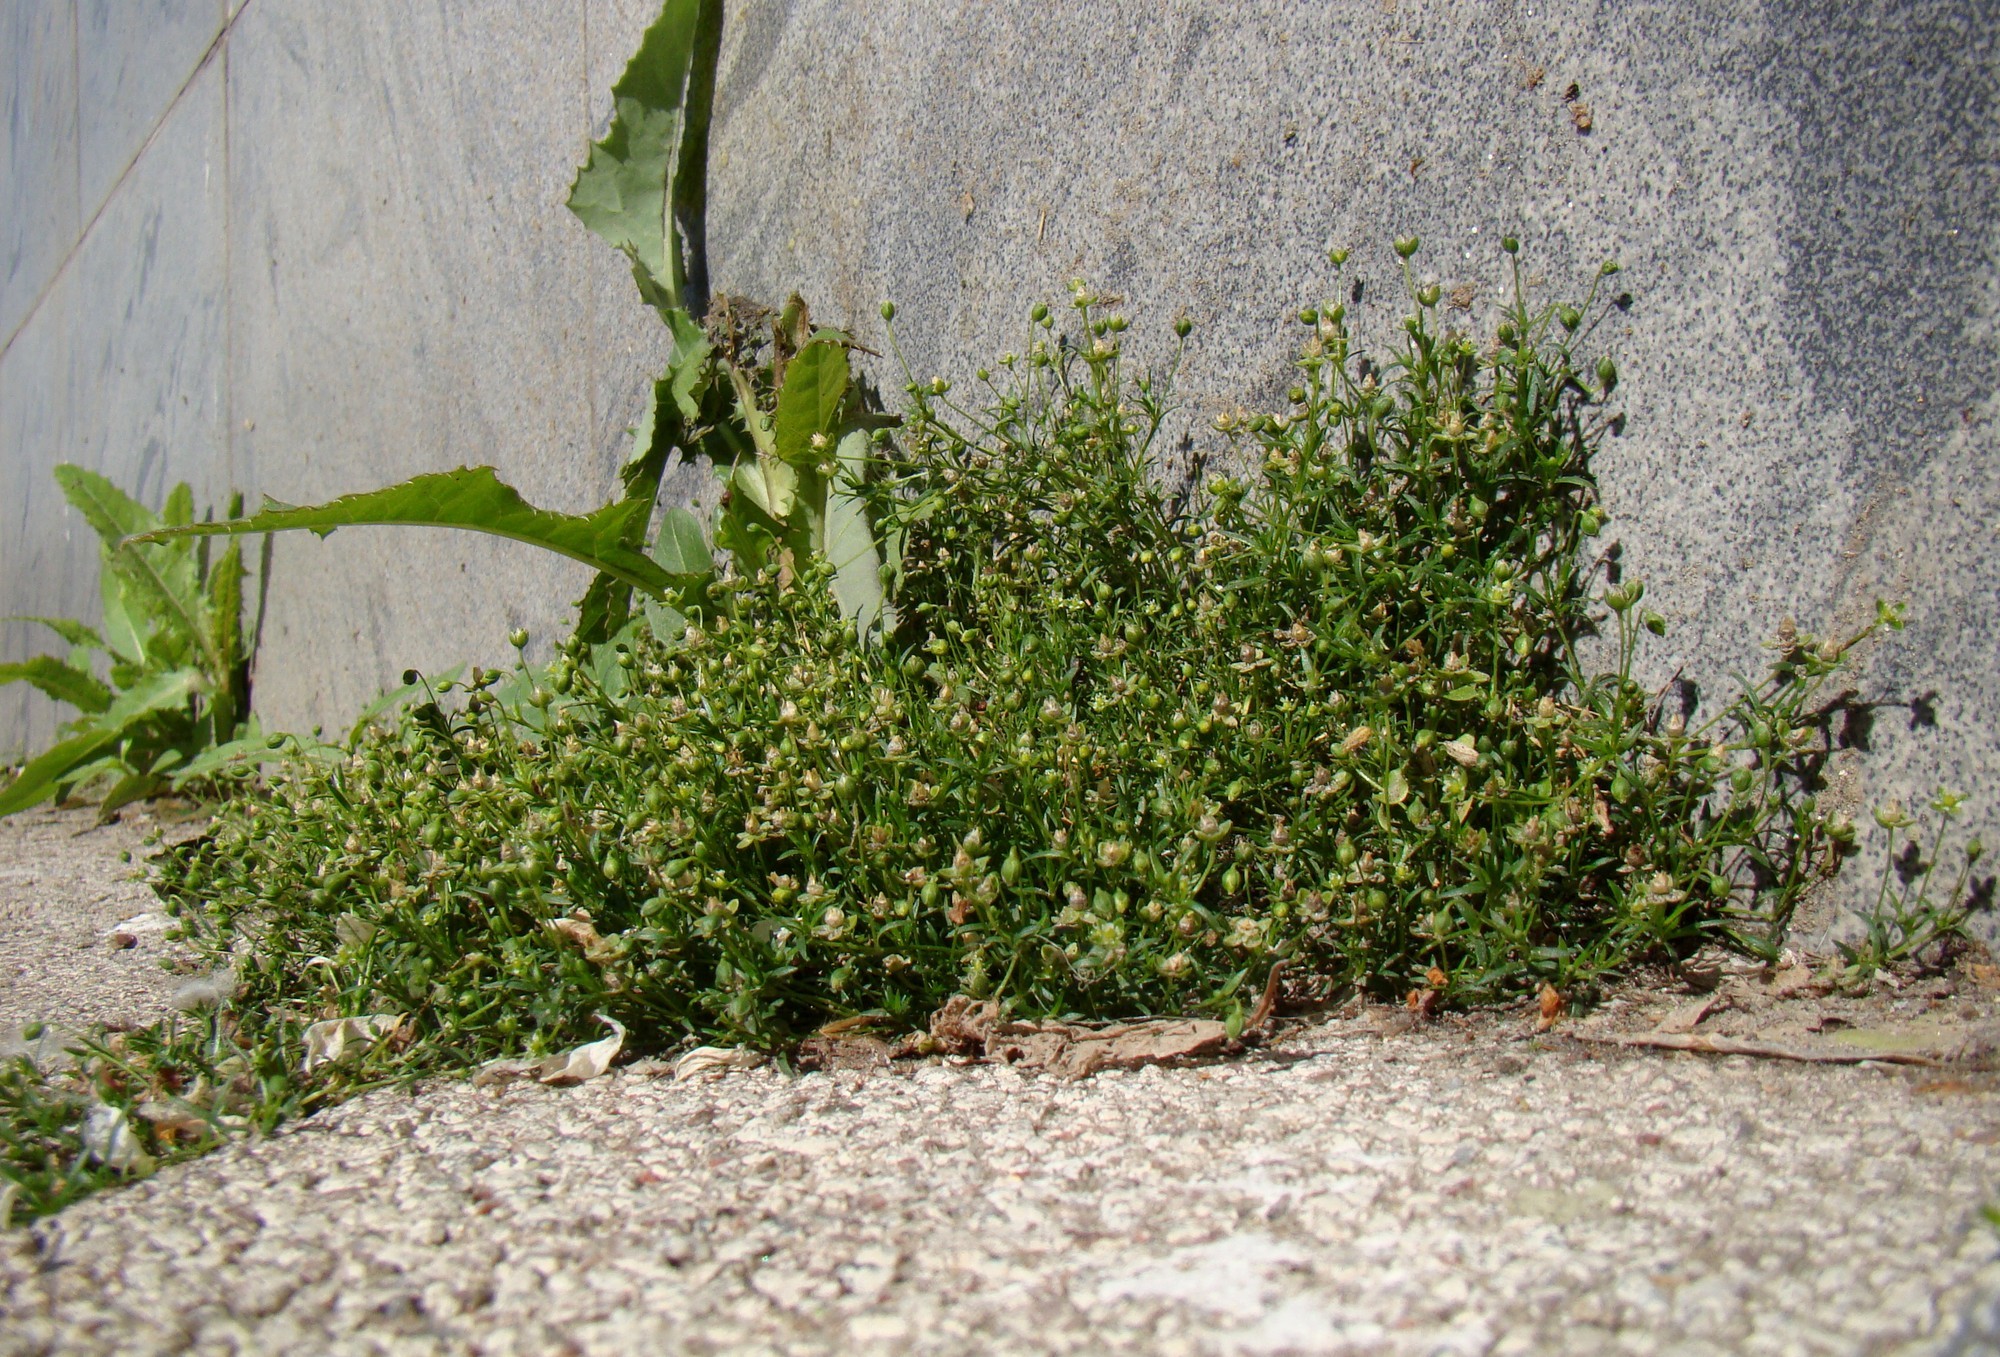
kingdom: Plantae
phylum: Tracheophyta
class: Magnoliopsida
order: Caryophyllales
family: Caryophyllaceae
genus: Sagina
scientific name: Sagina procumbens
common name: Procumbent pearlwort
